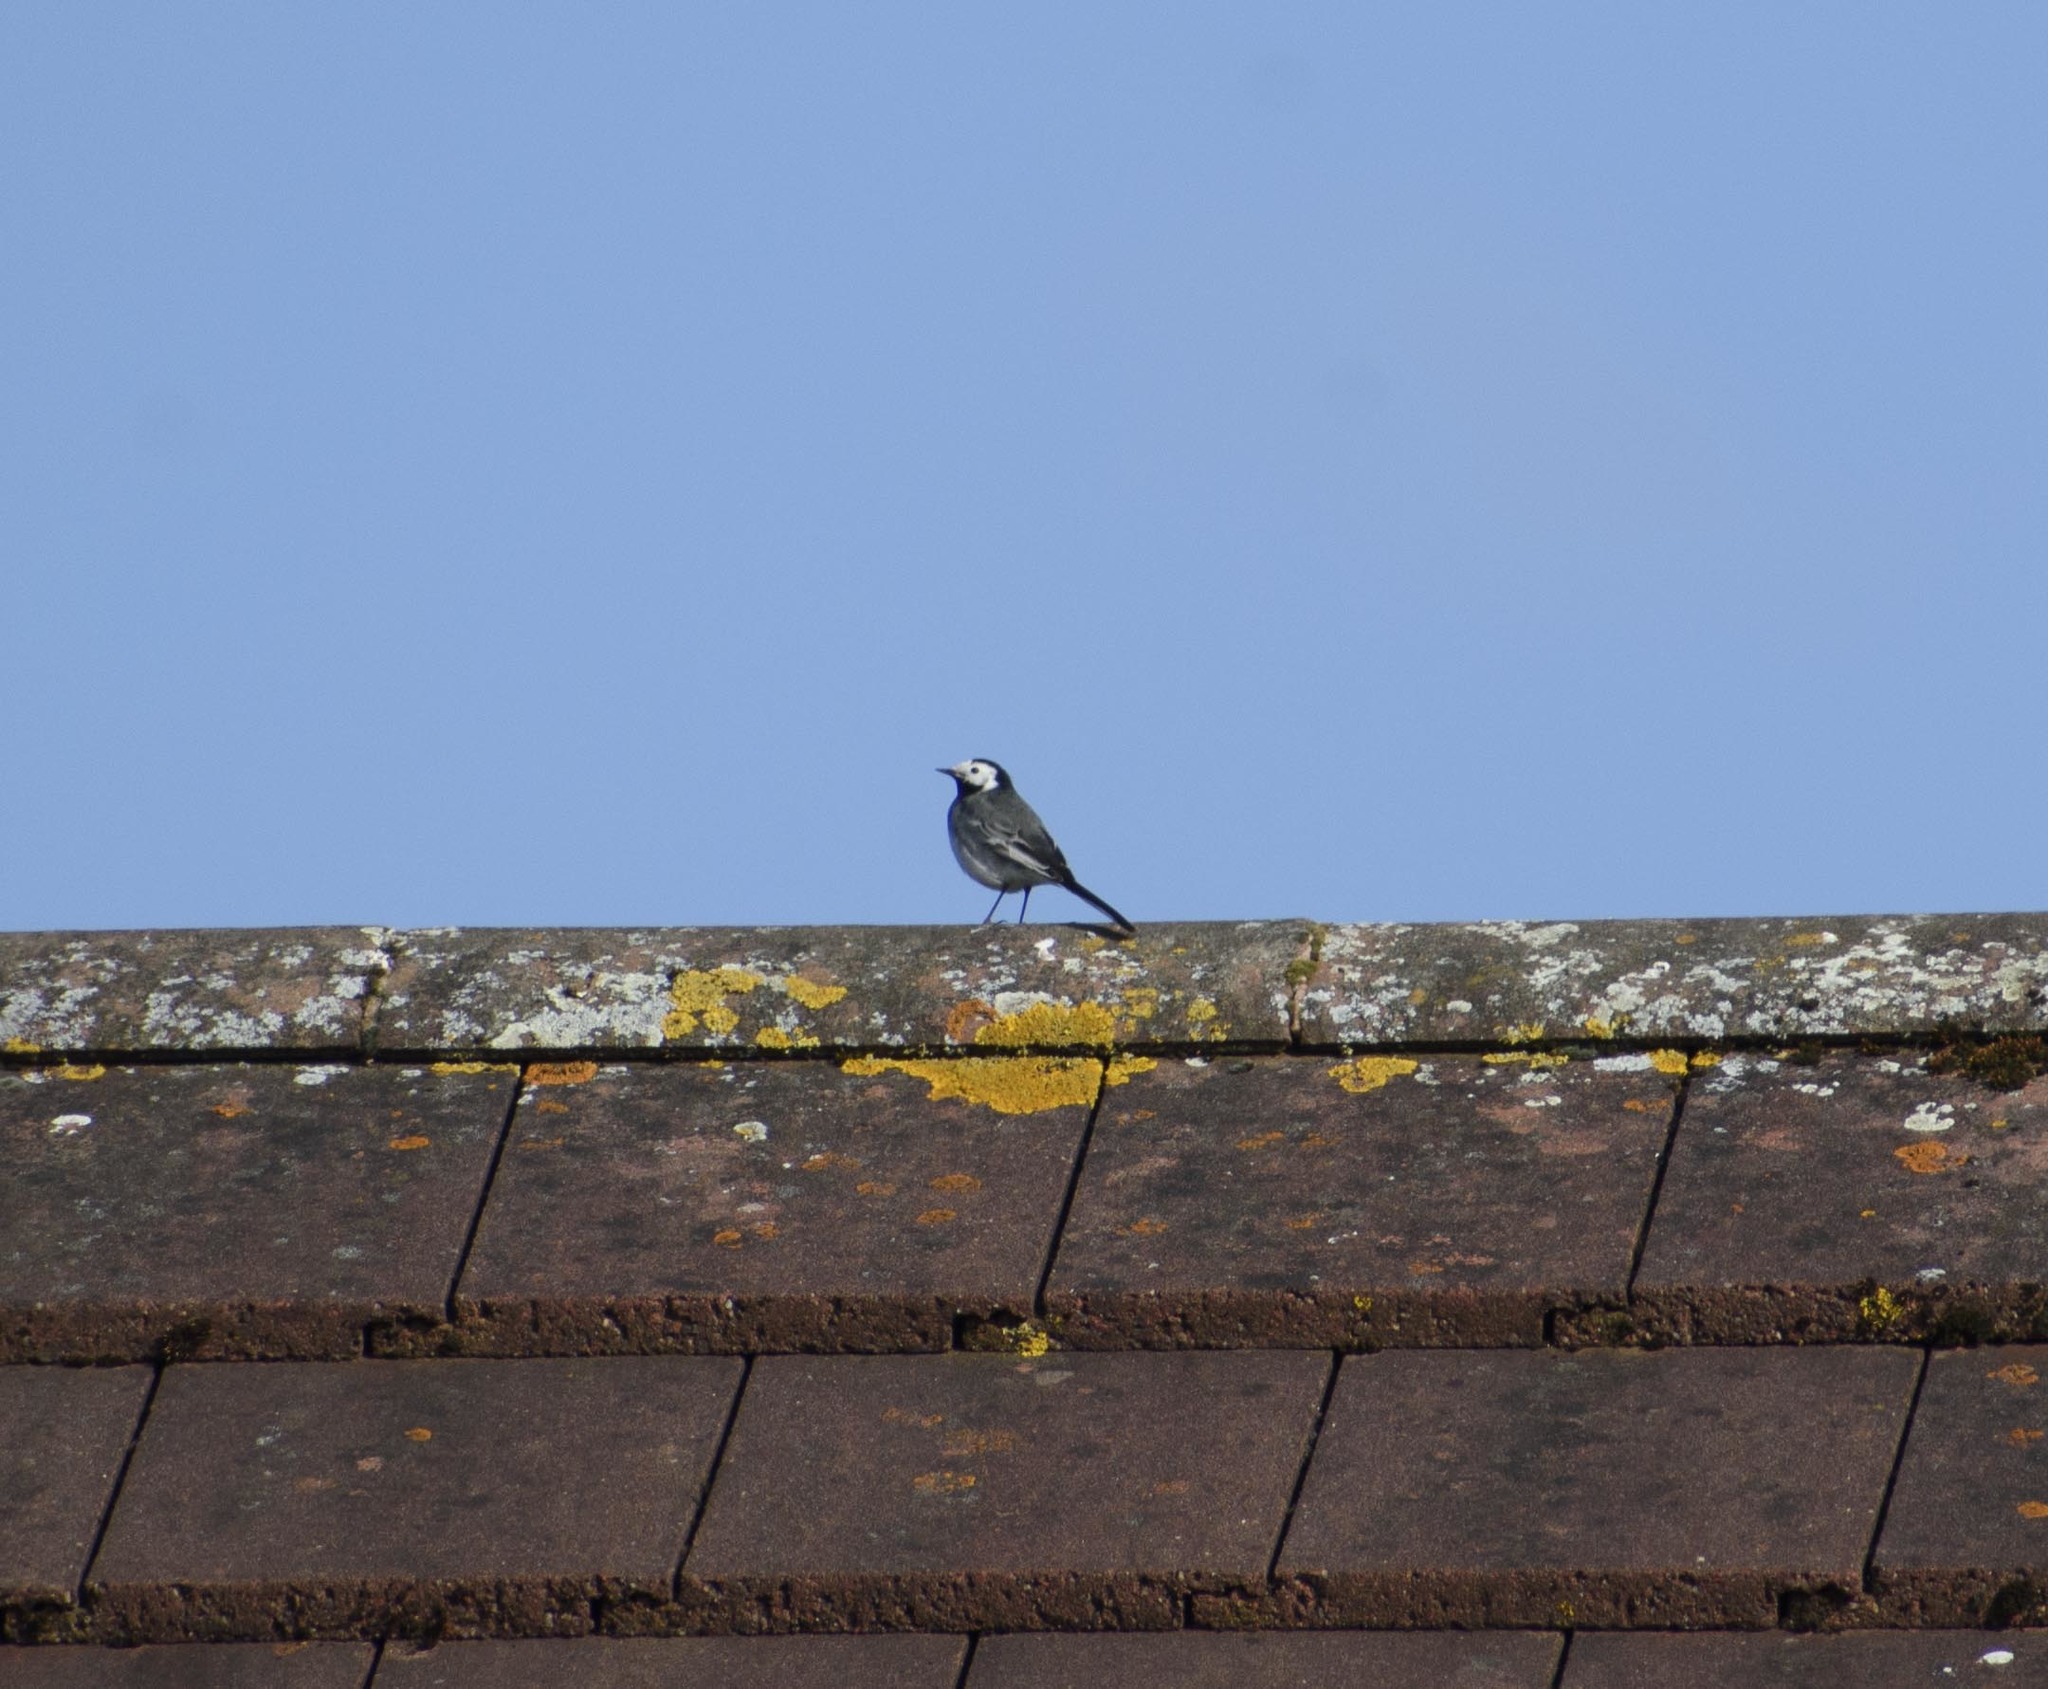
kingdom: Animalia
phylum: Chordata
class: Aves
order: Passeriformes
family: Motacillidae
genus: Motacilla
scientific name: Motacilla alba
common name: White wagtail
